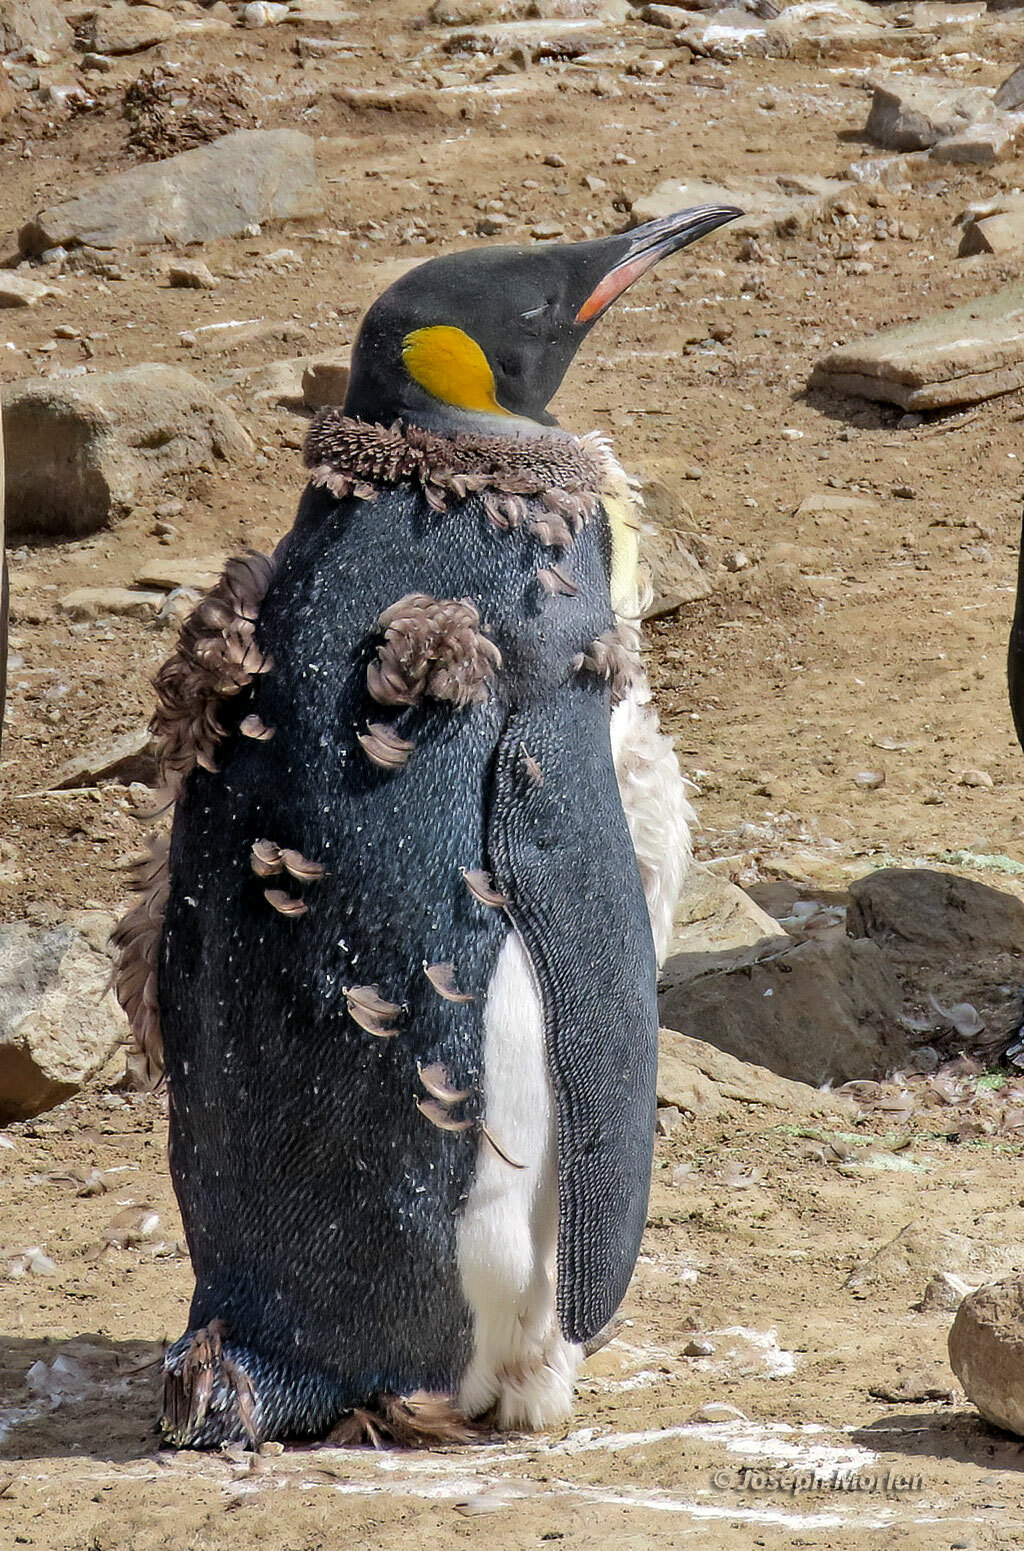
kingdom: Animalia
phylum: Chordata
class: Aves
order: Sphenisciformes
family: Spheniscidae
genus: Aptenodytes
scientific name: Aptenodytes patagonicus
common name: King penguin
